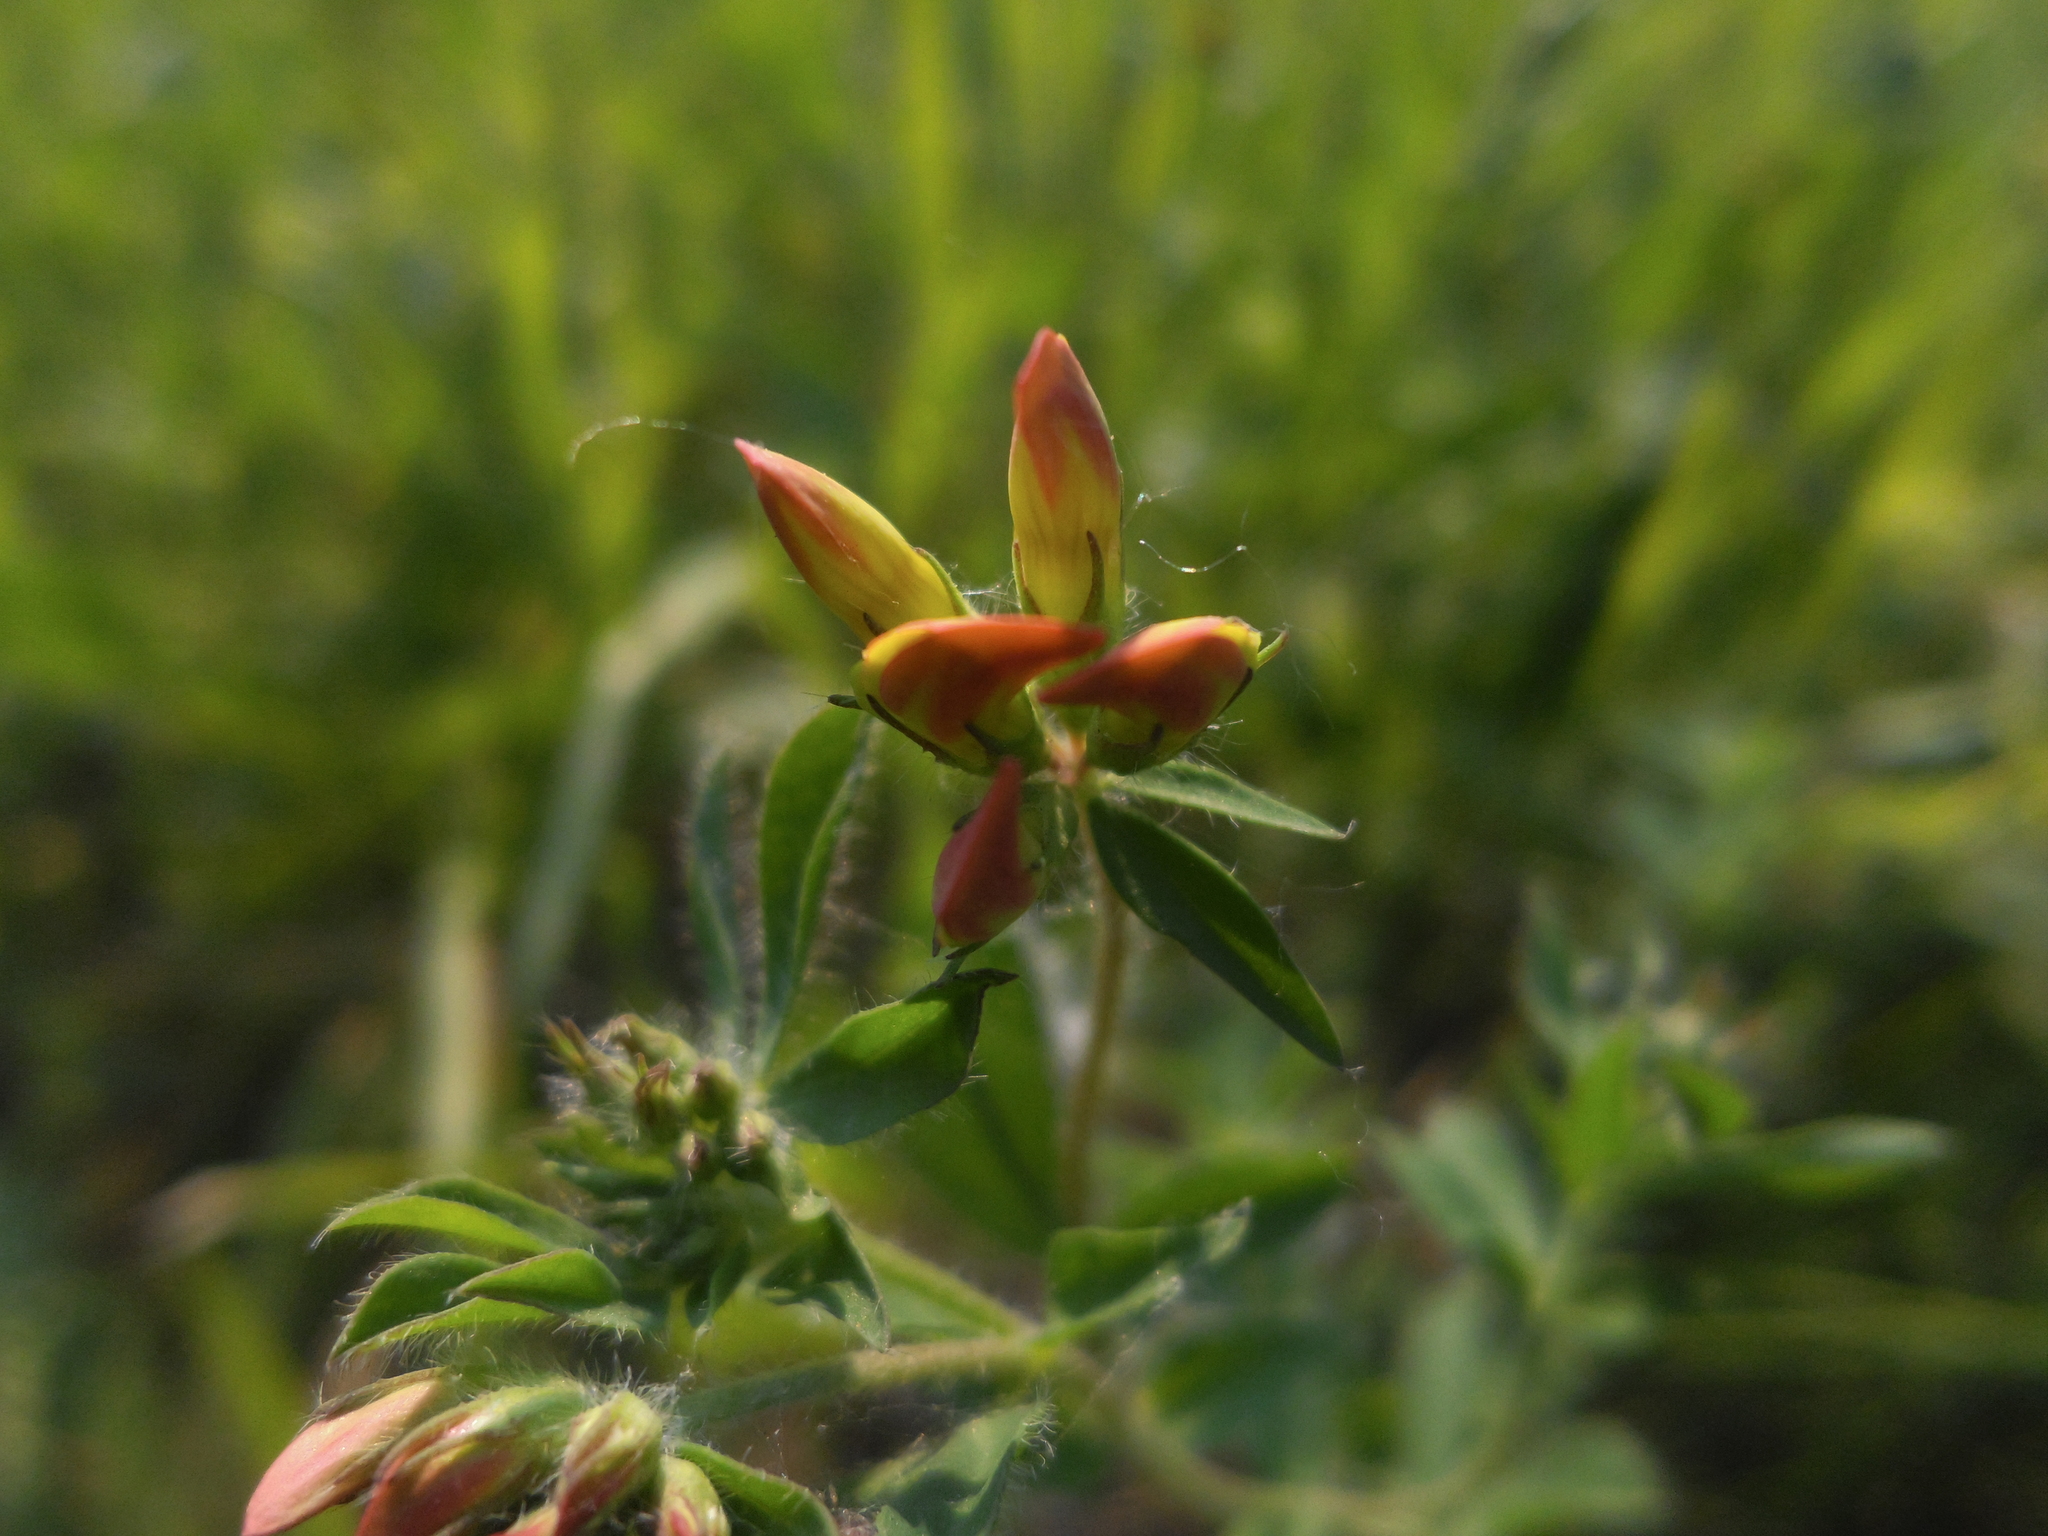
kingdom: Plantae
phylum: Tracheophyta
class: Magnoliopsida
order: Fabales
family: Fabaceae
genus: Lotus
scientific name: Lotus corniculatus
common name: Common bird's-foot-trefoil
